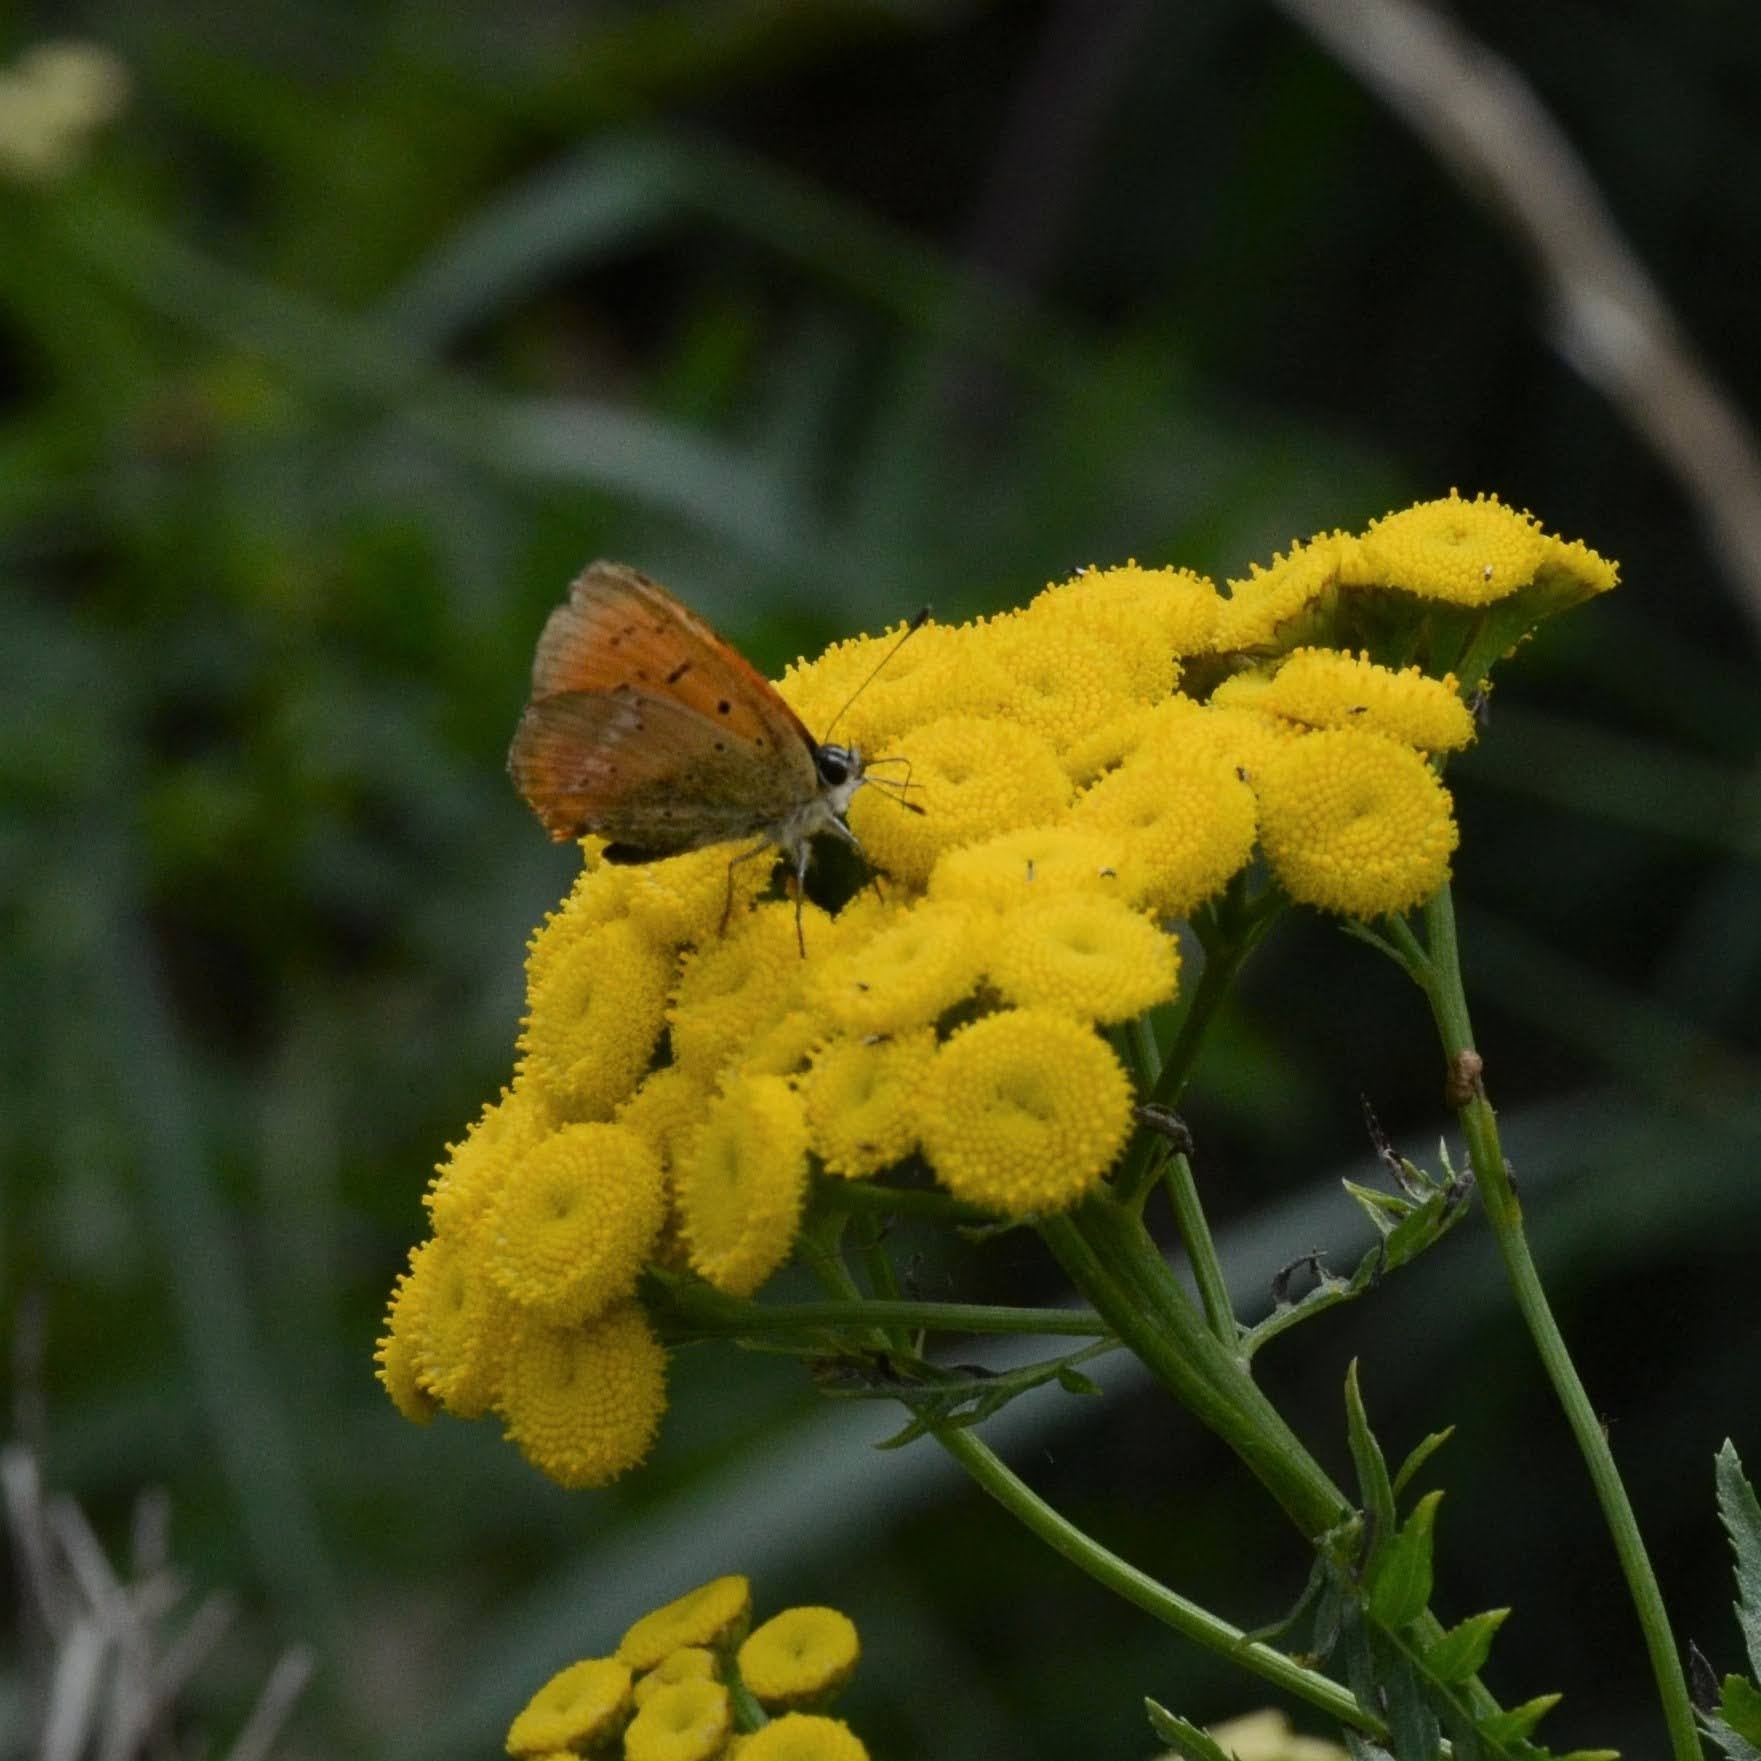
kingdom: Animalia
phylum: Arthropoda
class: Insecta
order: Lepidoptera
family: Lycaenidae
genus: Lycaena
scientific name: Lycaena virgaureae
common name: Scarce copper
